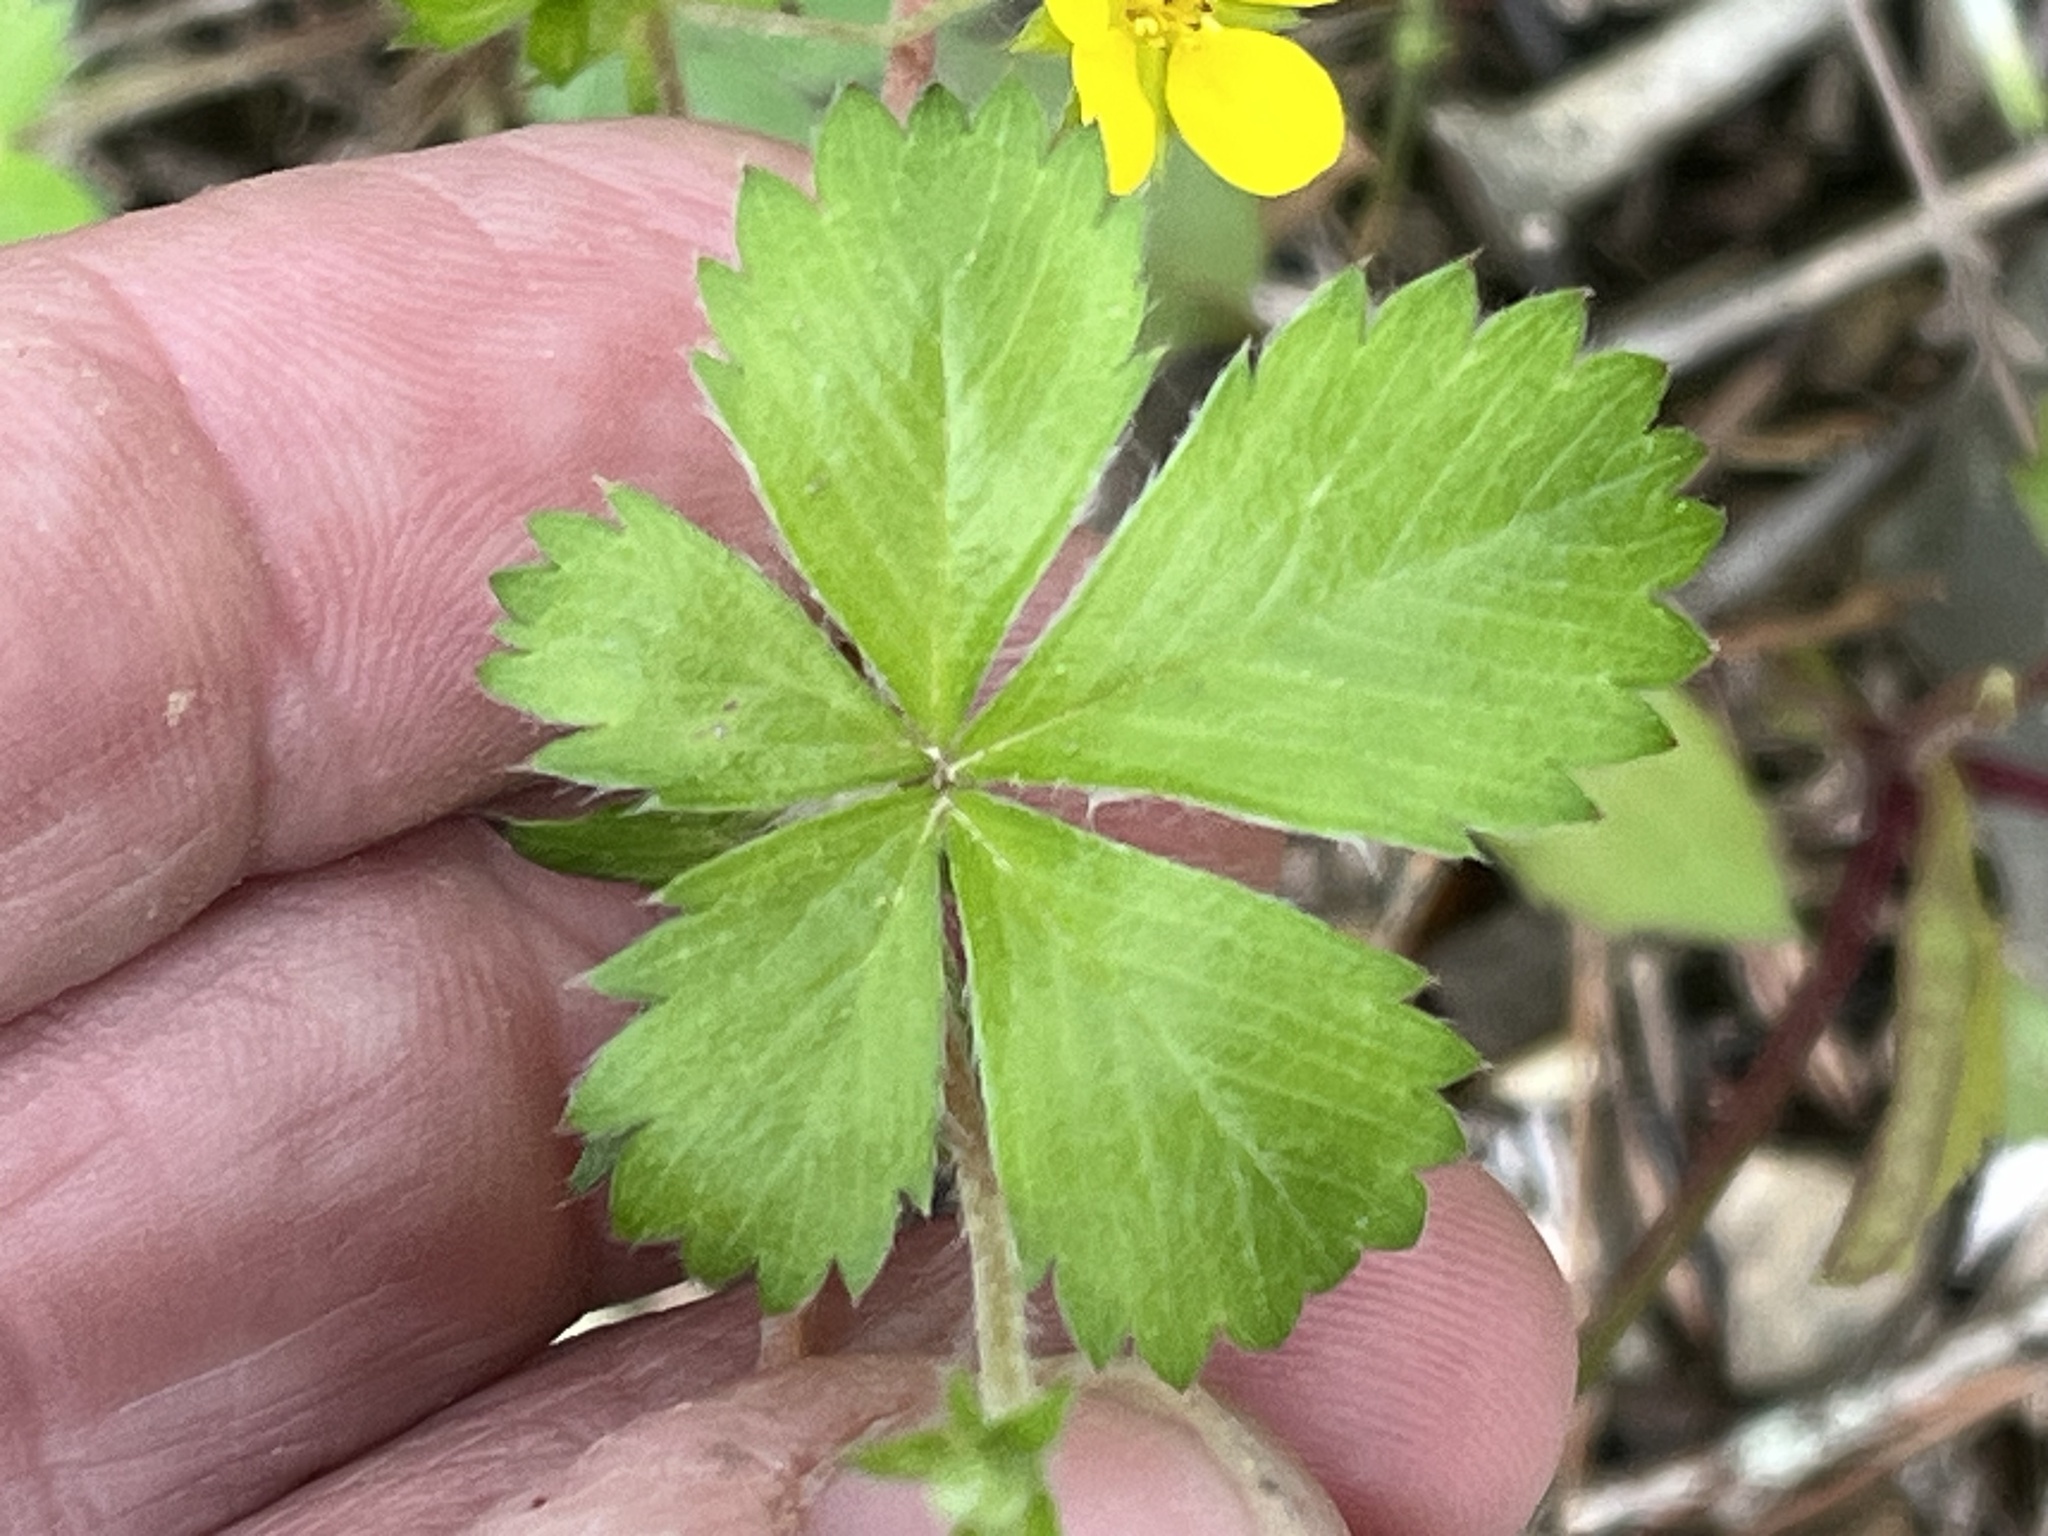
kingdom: Plantae
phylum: Tracheophyta
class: Magnoliopsida
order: Rosales
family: Rosaceae
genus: Potentilla
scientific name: Potentilla canadensis
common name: Canada cinquefoil
